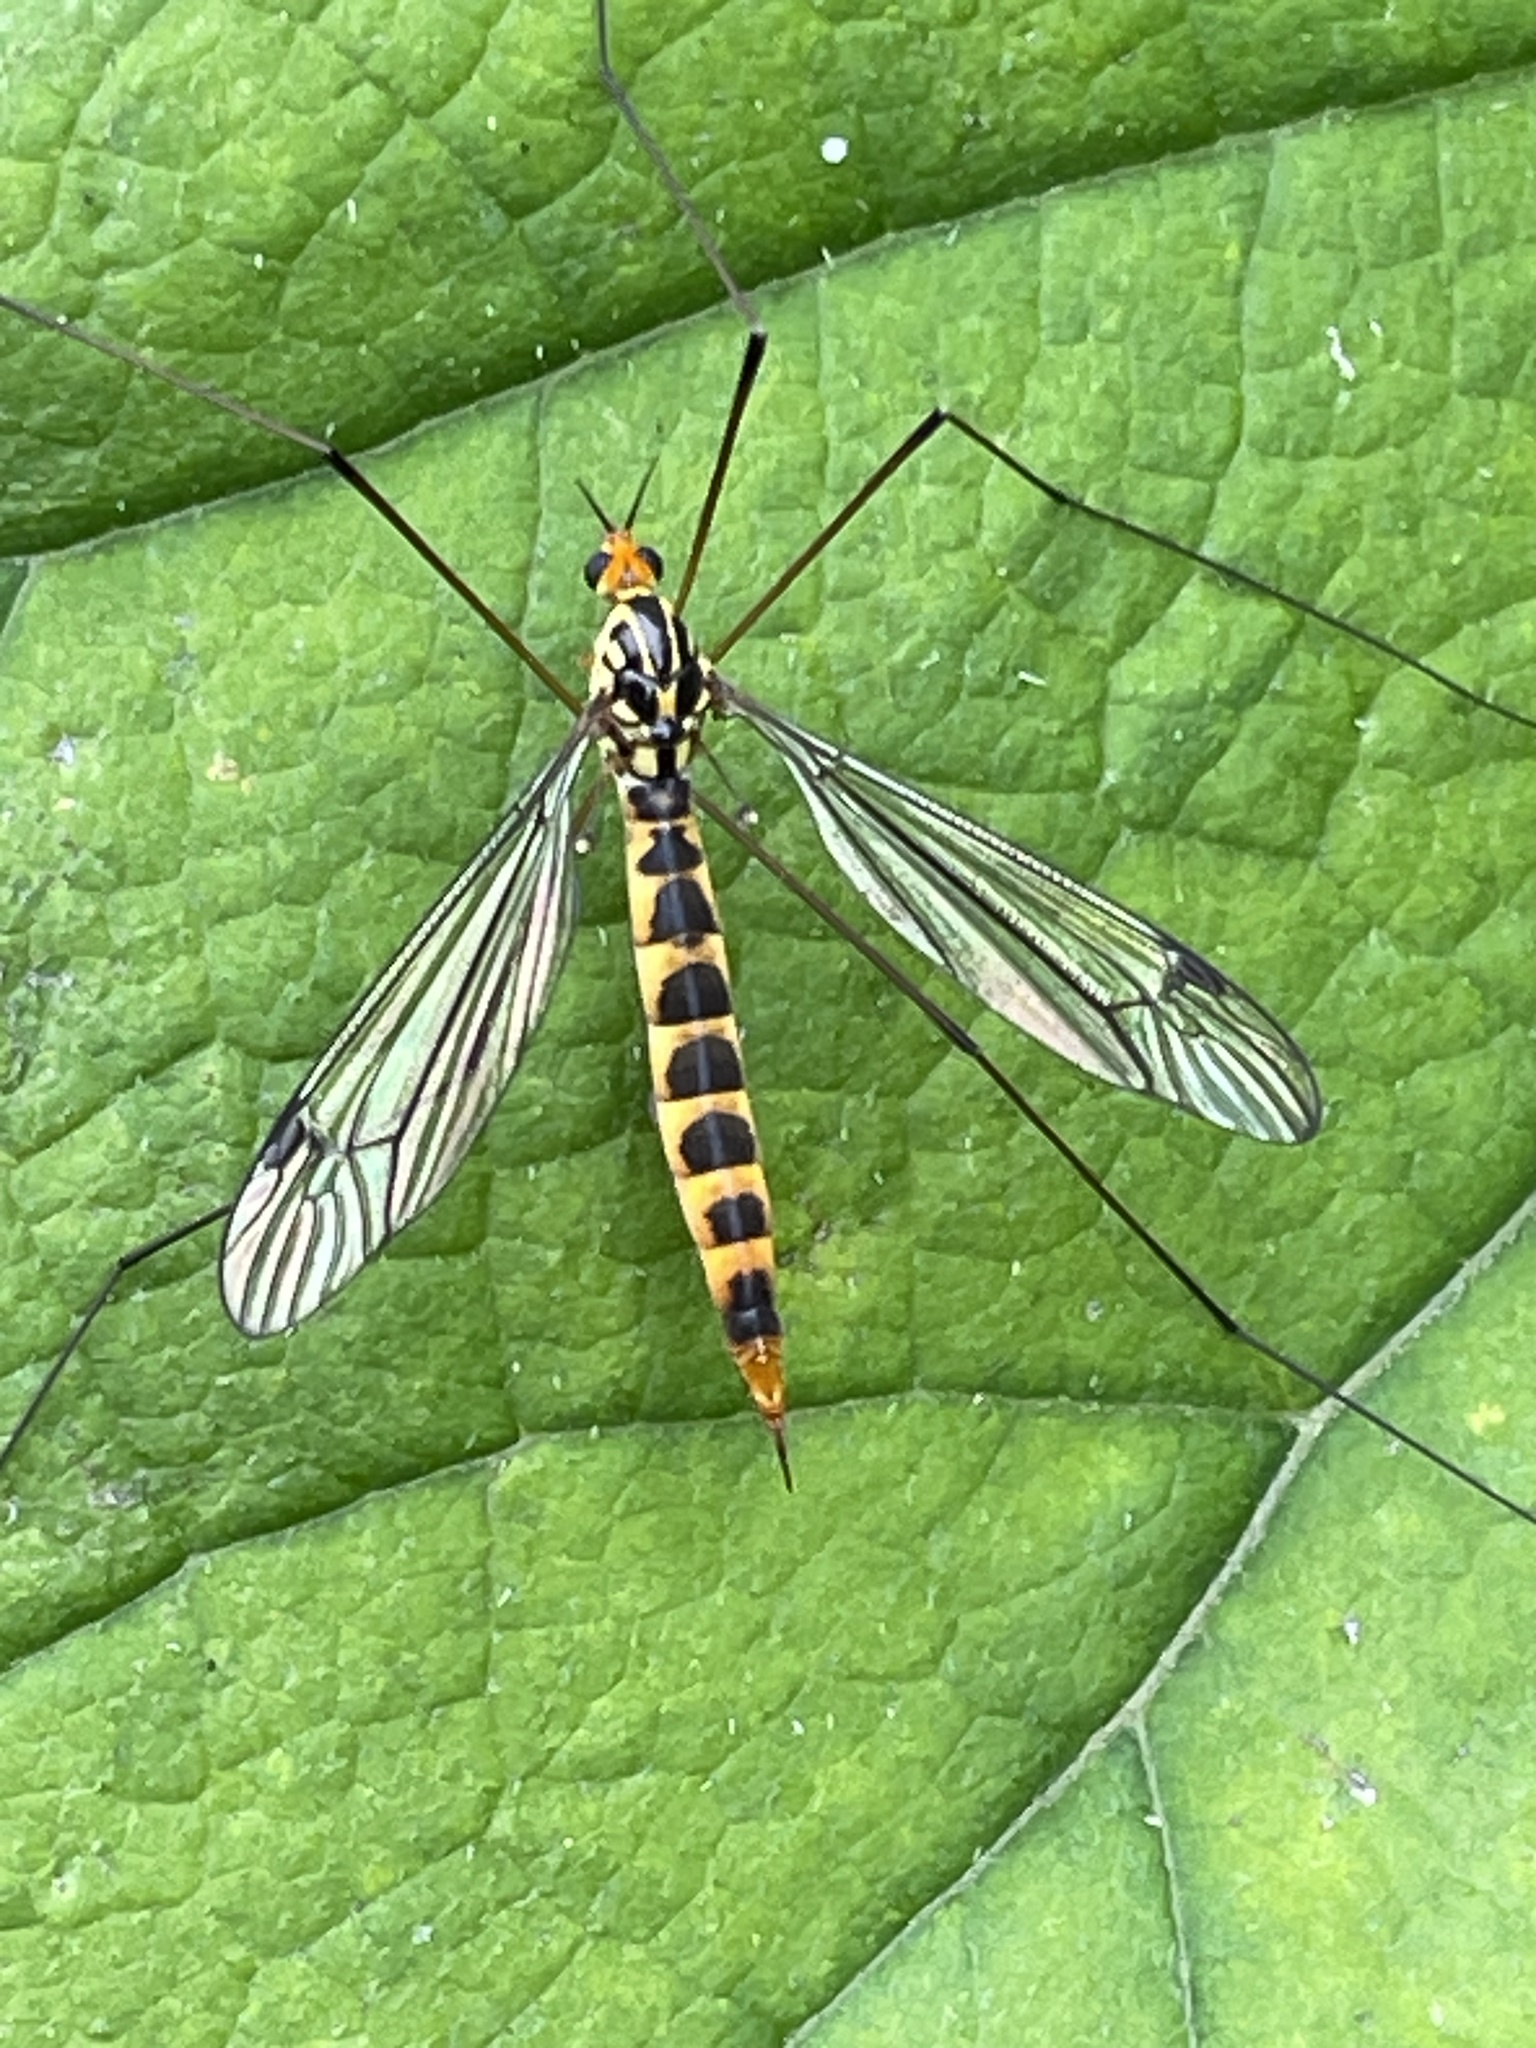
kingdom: Animalia
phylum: Arthropoda
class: Insecta
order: Diptera
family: Tipulidae
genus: Nephrotoma
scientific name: Nephrotoma flavipalpis
